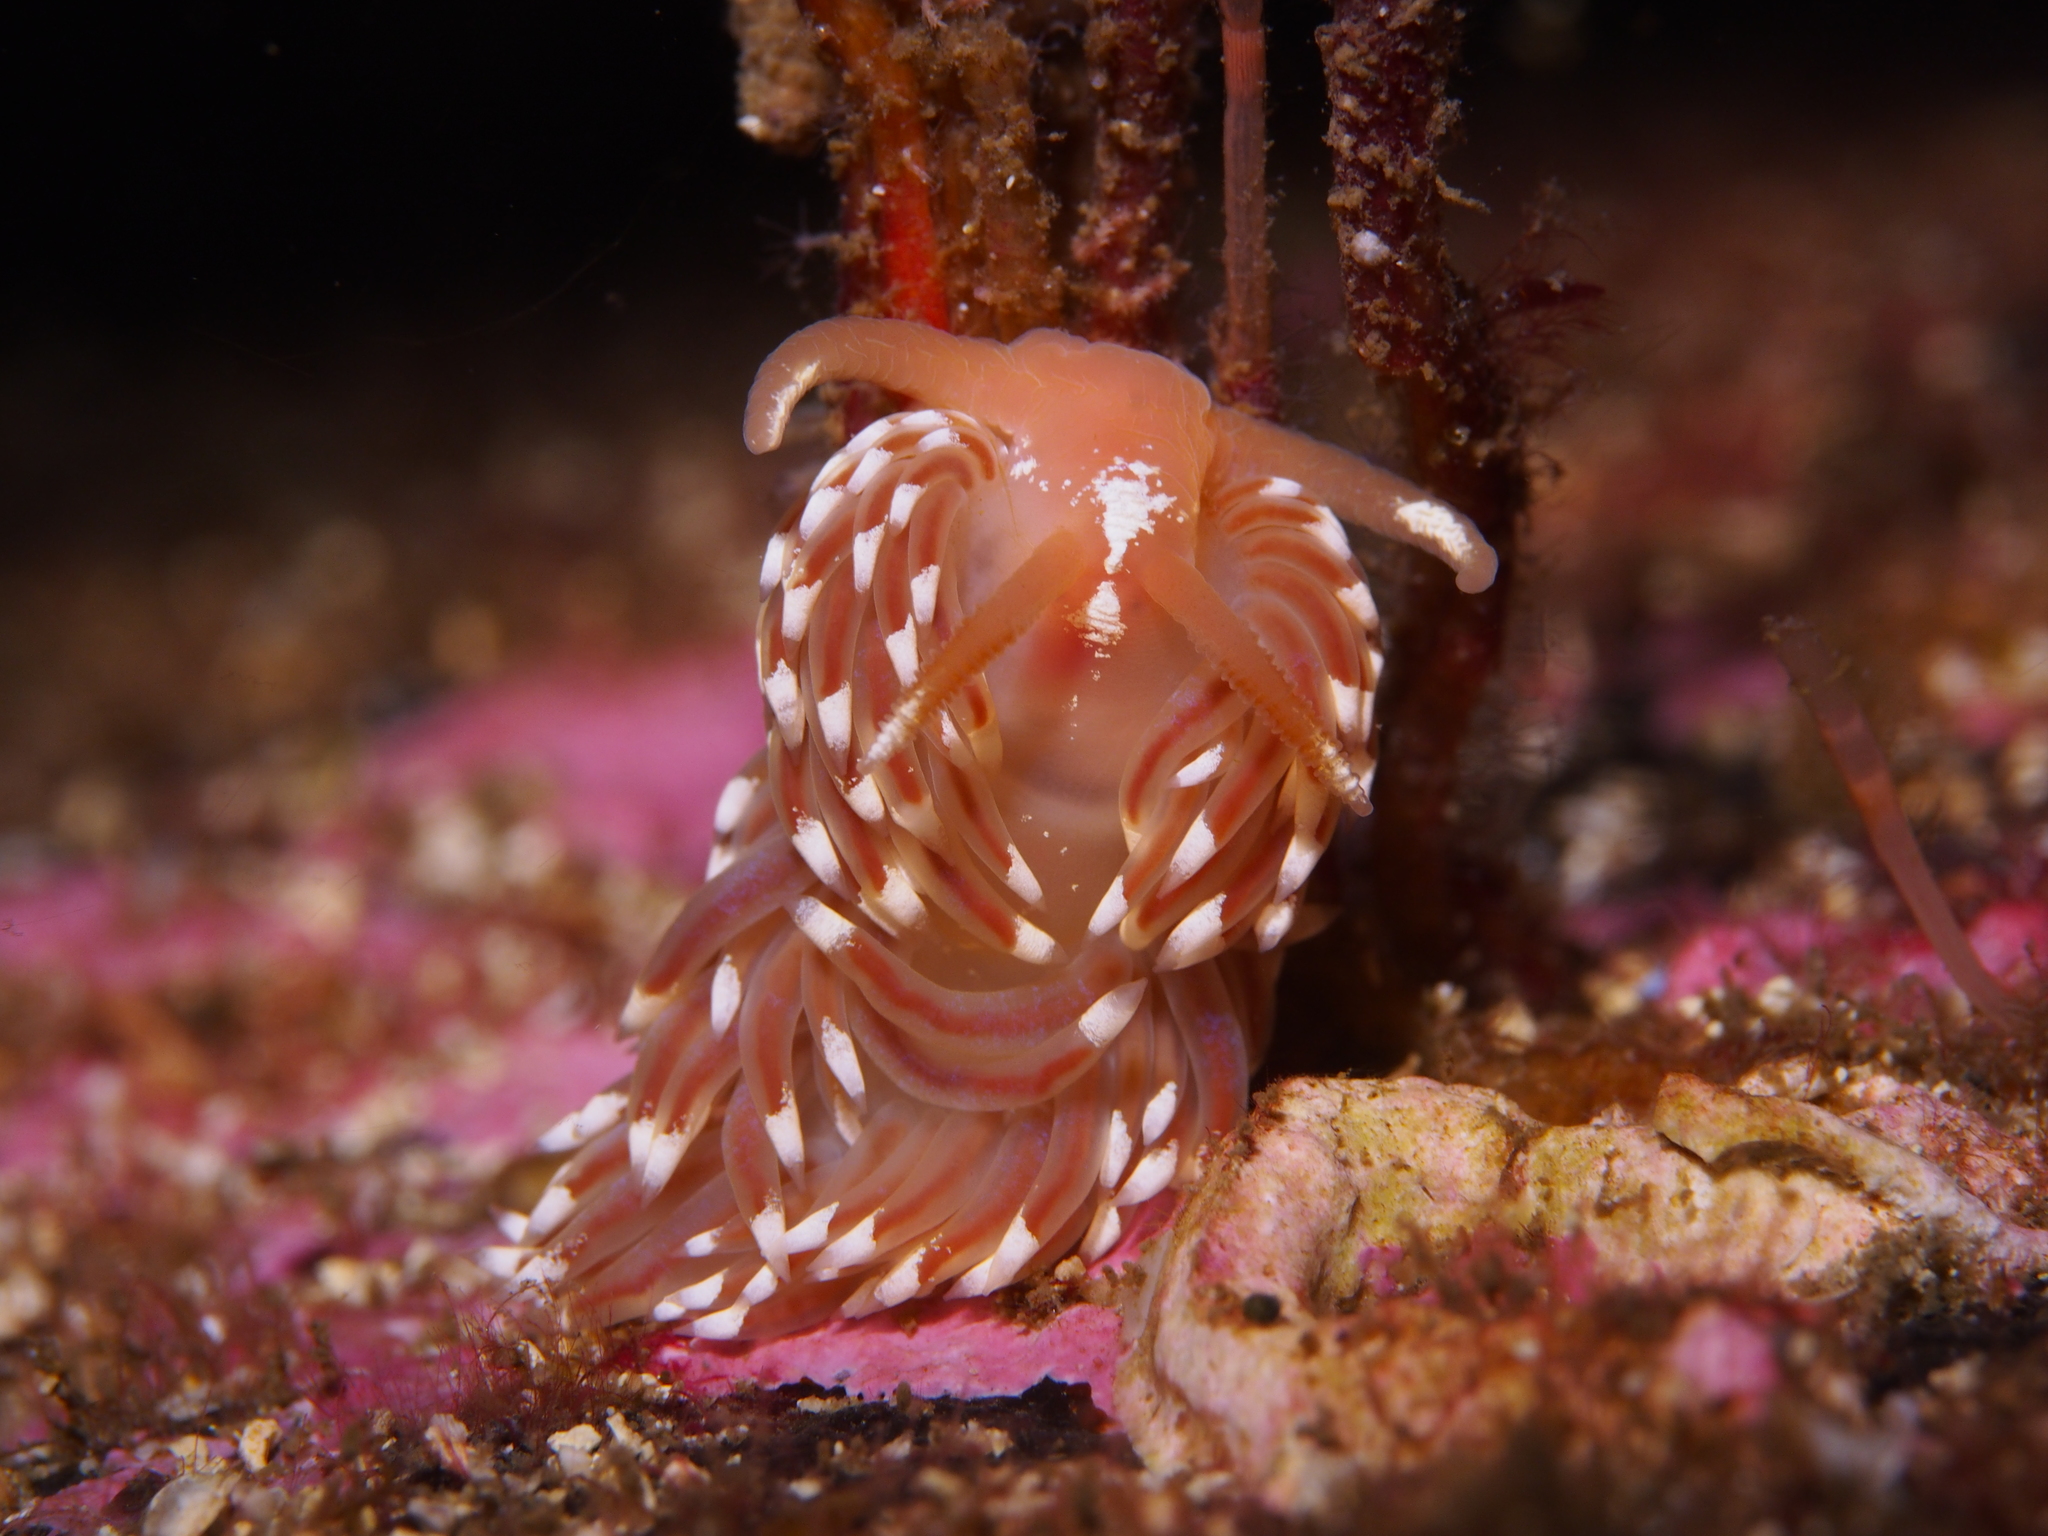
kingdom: Animalia
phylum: Mollusca
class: Gastropoda
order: Nudibranchia
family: Facelinidae
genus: Facelina
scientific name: Facelina bostoniensis
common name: Boston facelina
